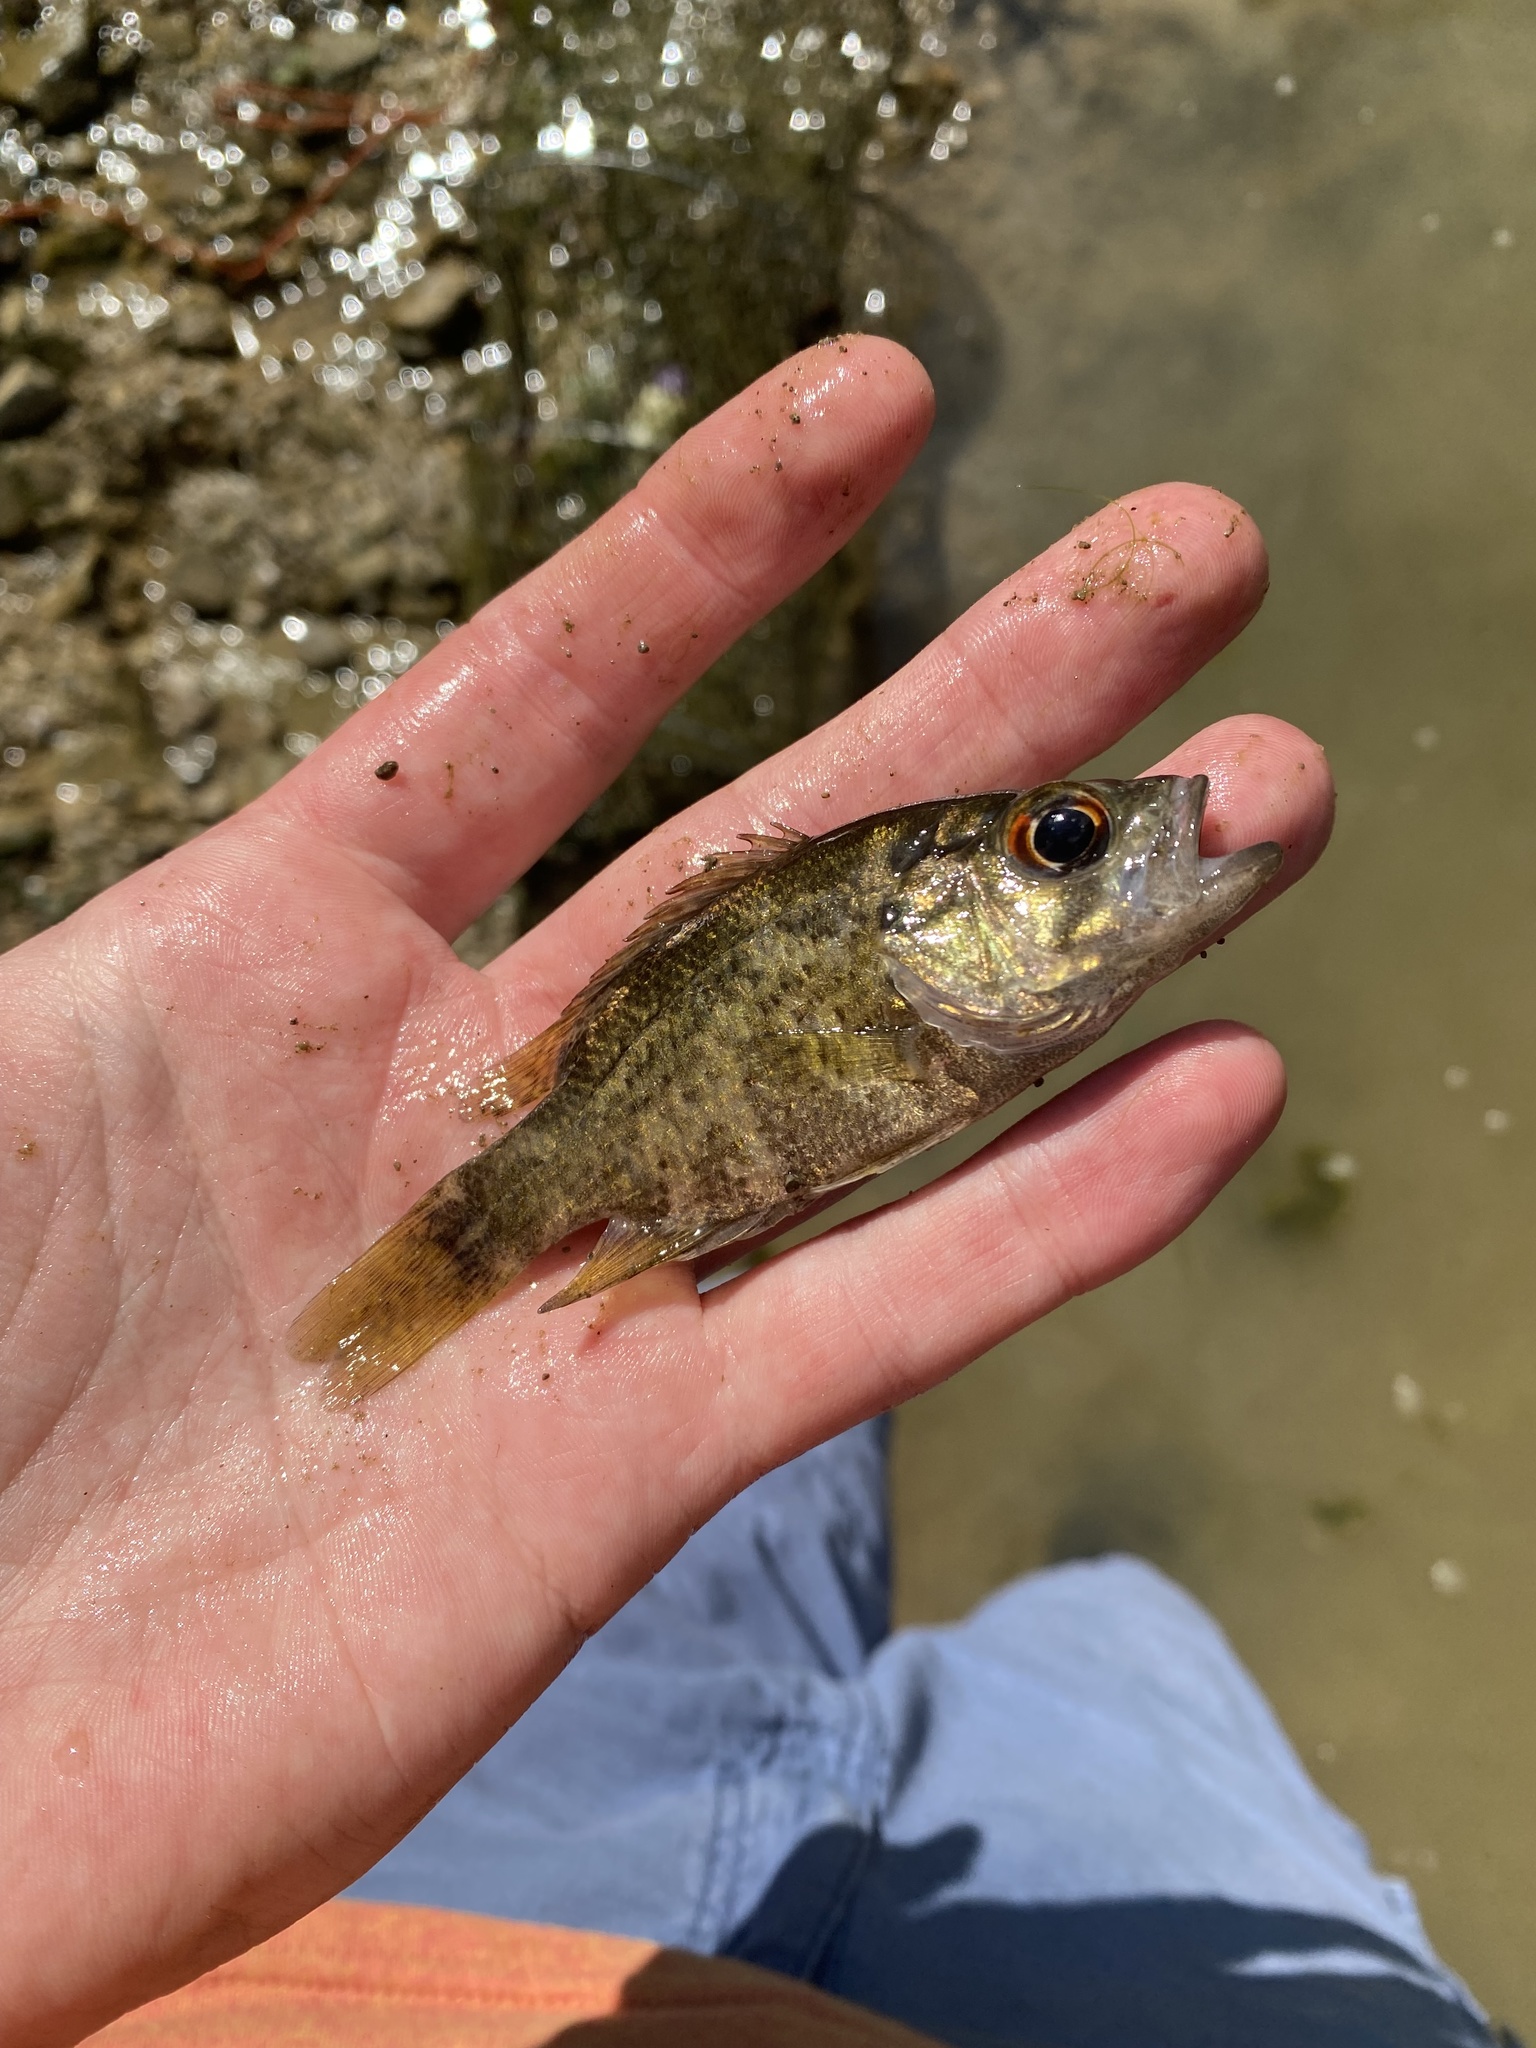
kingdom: Animalia
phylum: Chordata
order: Perciformes
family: Centrarchidae
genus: Ambloplites
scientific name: Ambloplites rupestris
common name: Rock bass
